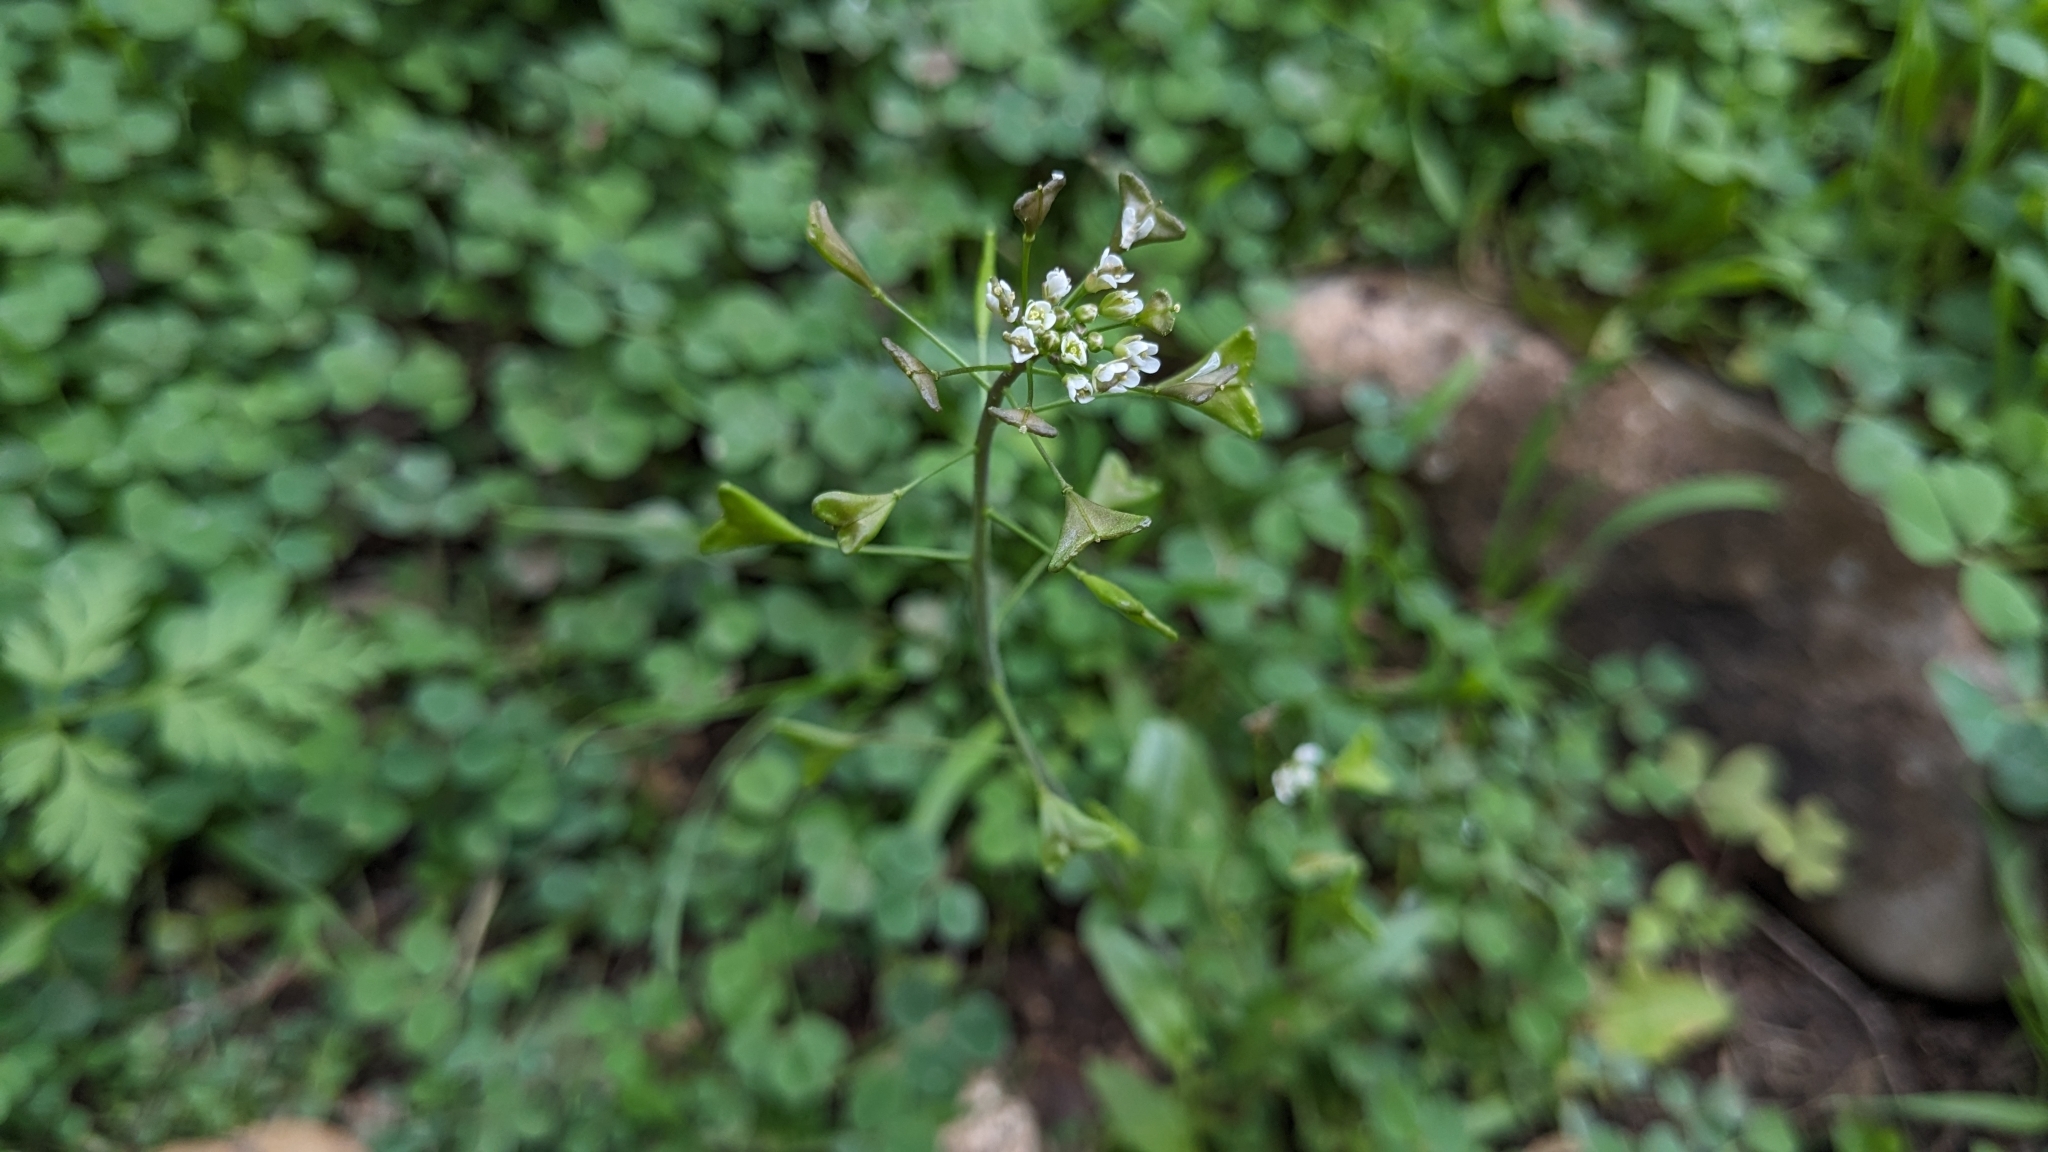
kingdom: Plantae
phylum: Tracheophyta
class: Magnoliopsida
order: Brassicales
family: Brassicaceae
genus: Capsella
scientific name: Capsella bursa-pastoris
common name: Shepherd's purse
